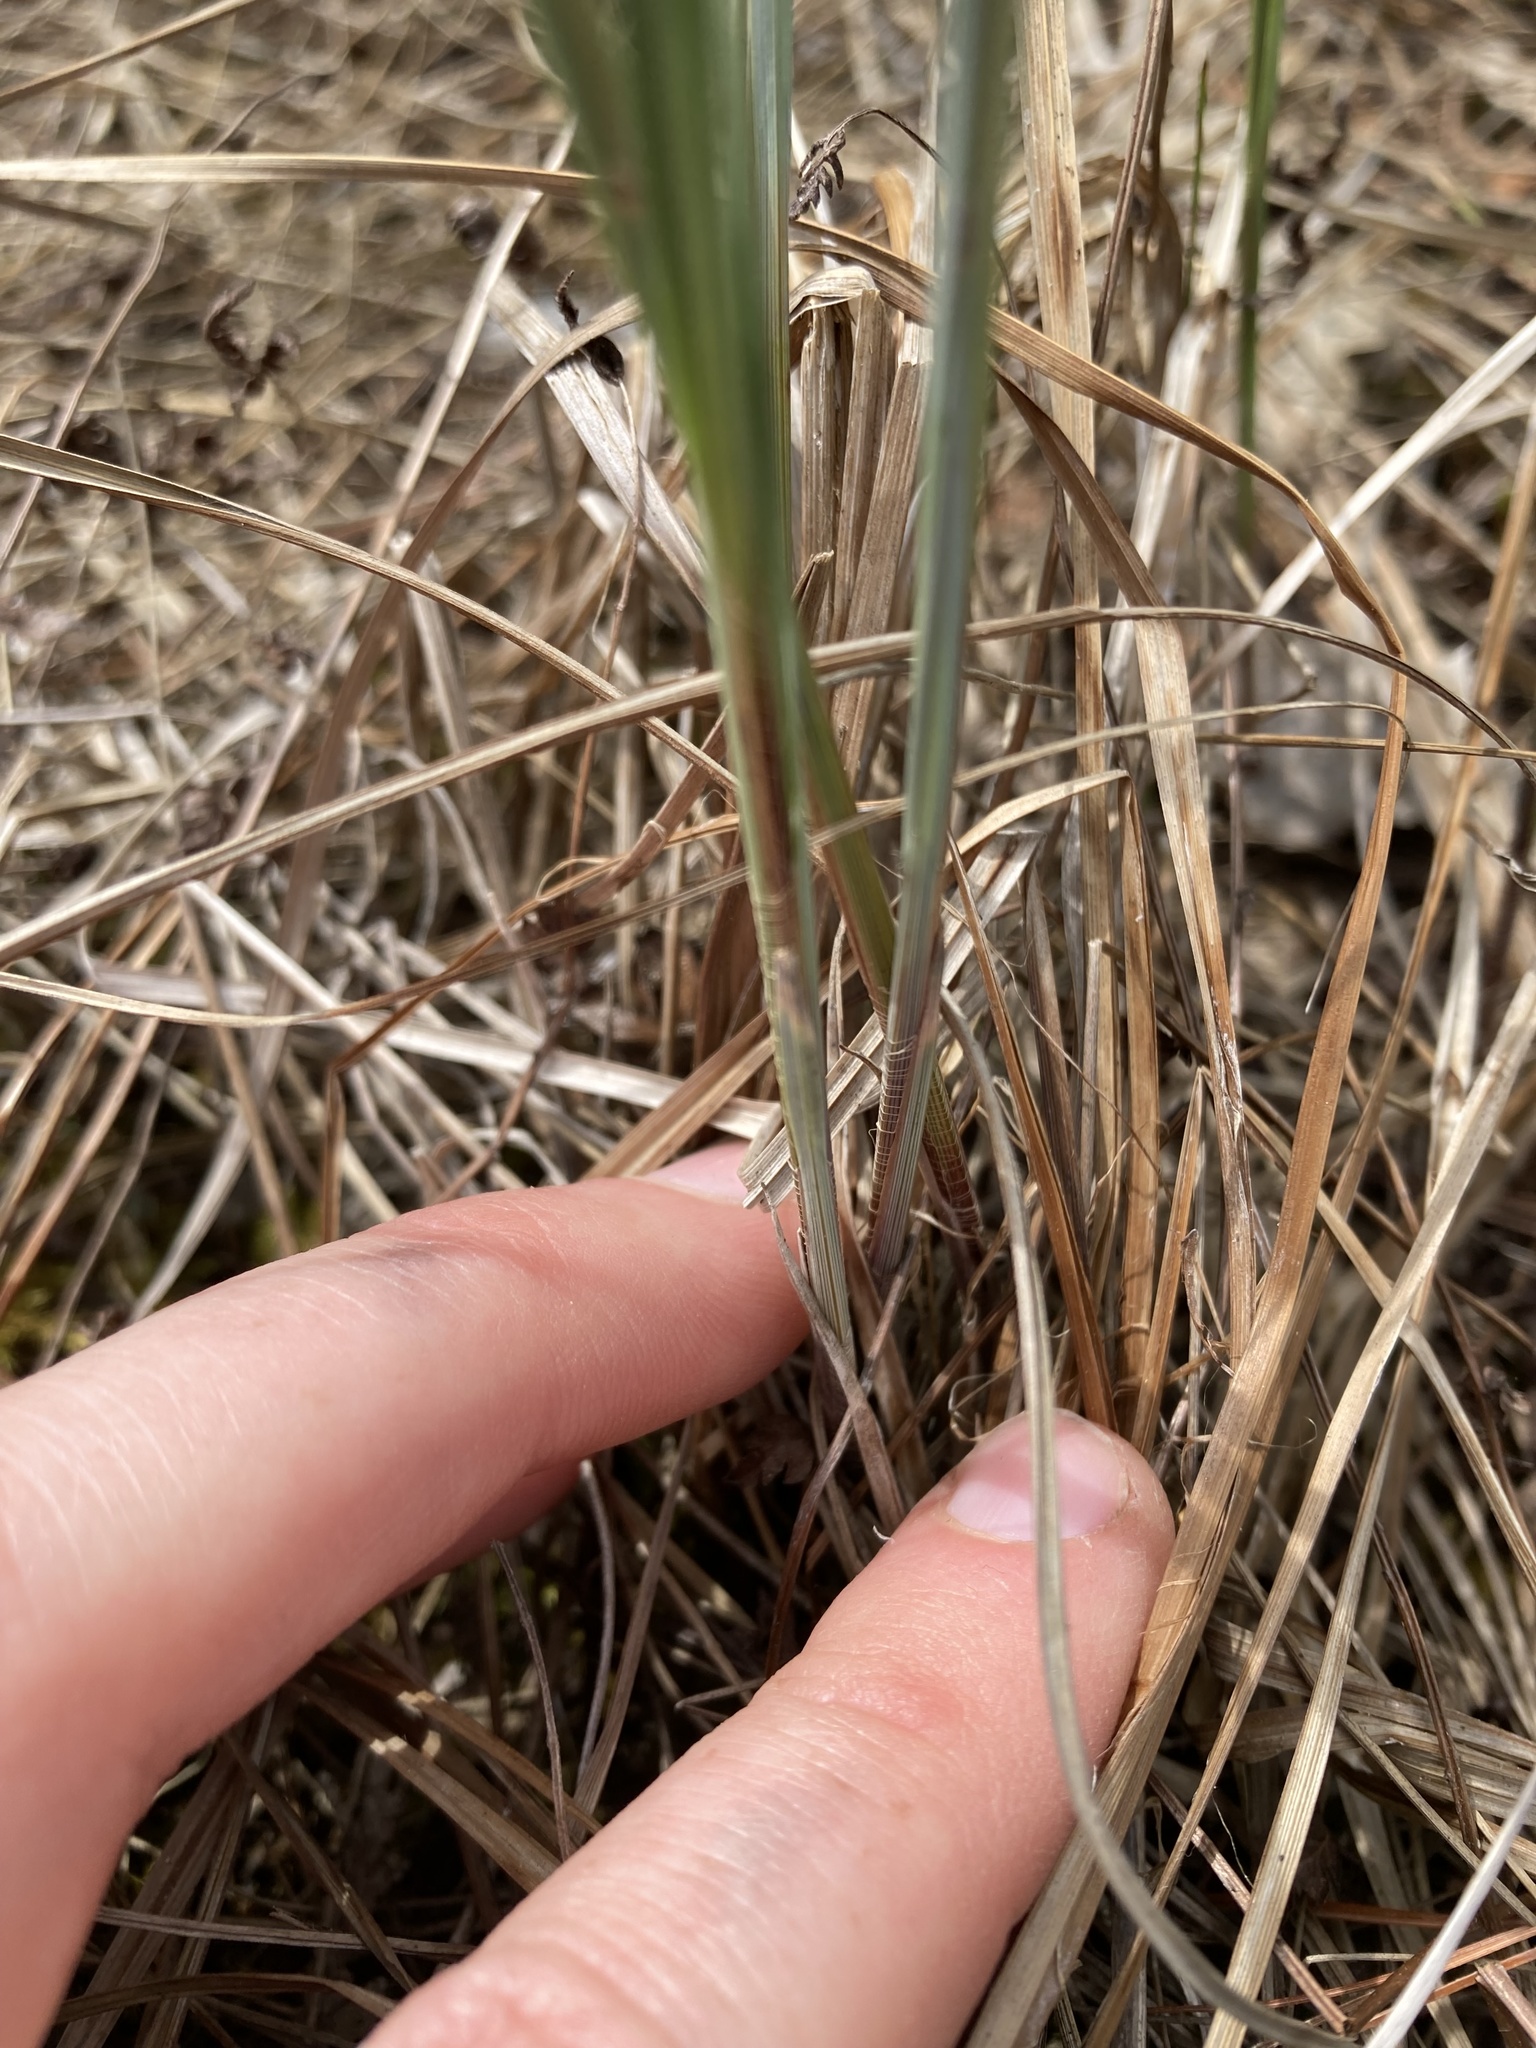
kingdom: Plantae
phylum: Tracheophyta
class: Liliopsida
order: Poales
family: Cyperaceae
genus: Carex
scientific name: Carex buxbaumii
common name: Club sedge
